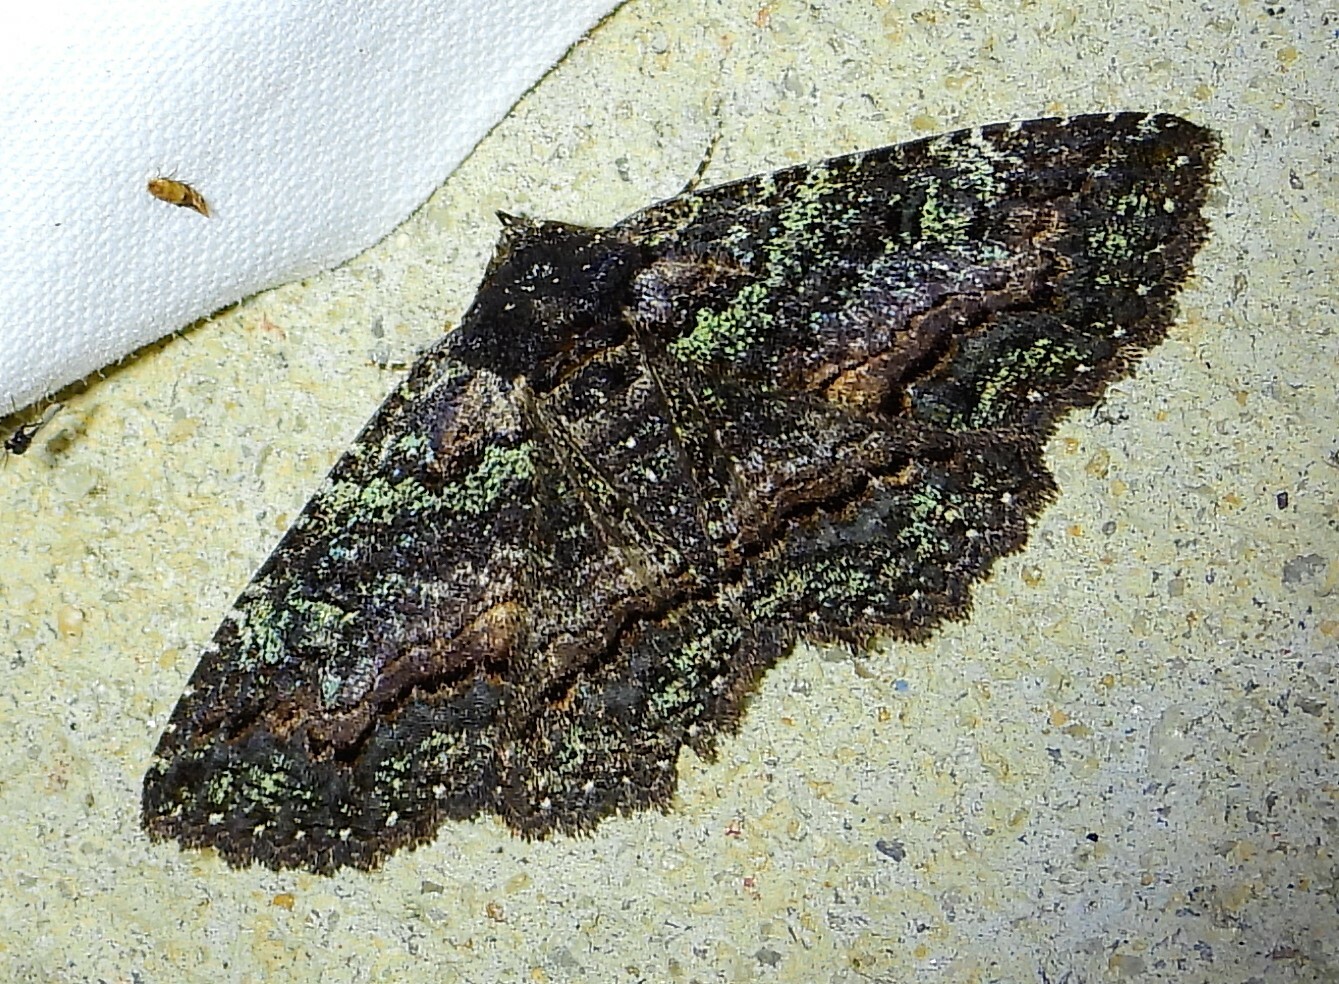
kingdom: Animalia
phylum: Arthropoda
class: Insecta
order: Lepidoptera
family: Erebidae
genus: Zale
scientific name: Zale aeruginosa
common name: Green-dusted zale moth
